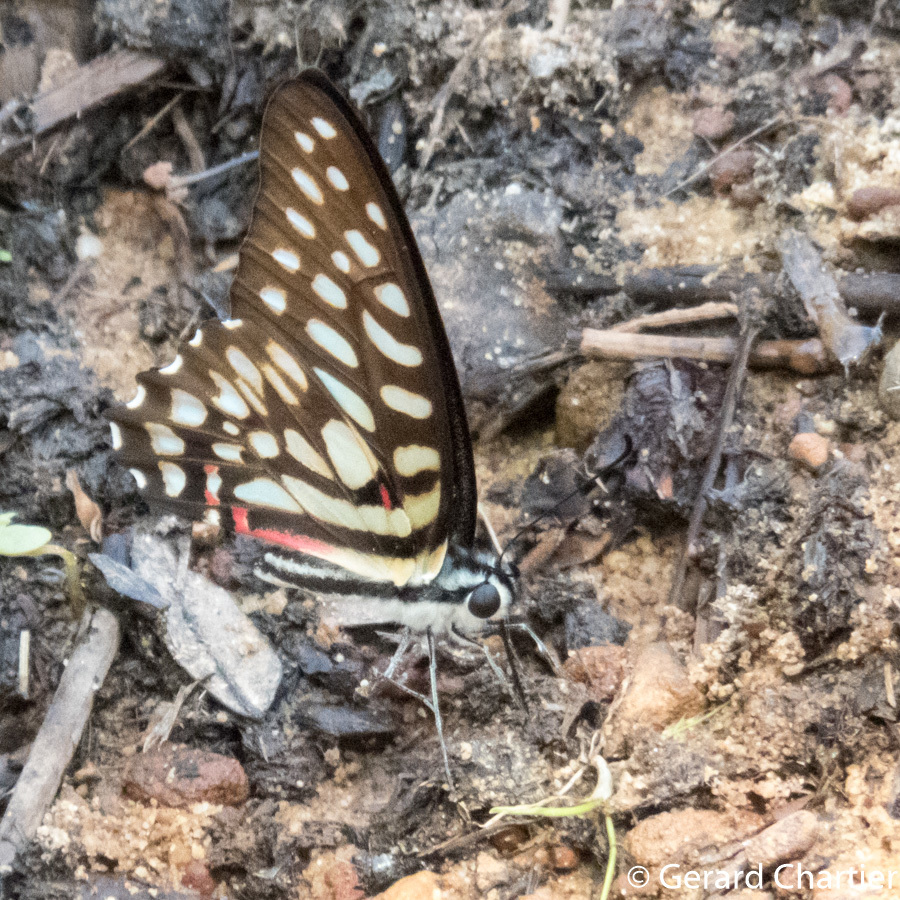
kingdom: Animalia
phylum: Arthropoda
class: Insecta
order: Lepidoptera
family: Papilionidae
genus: Graphium
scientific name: Graphium arycles
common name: Spotted jay
